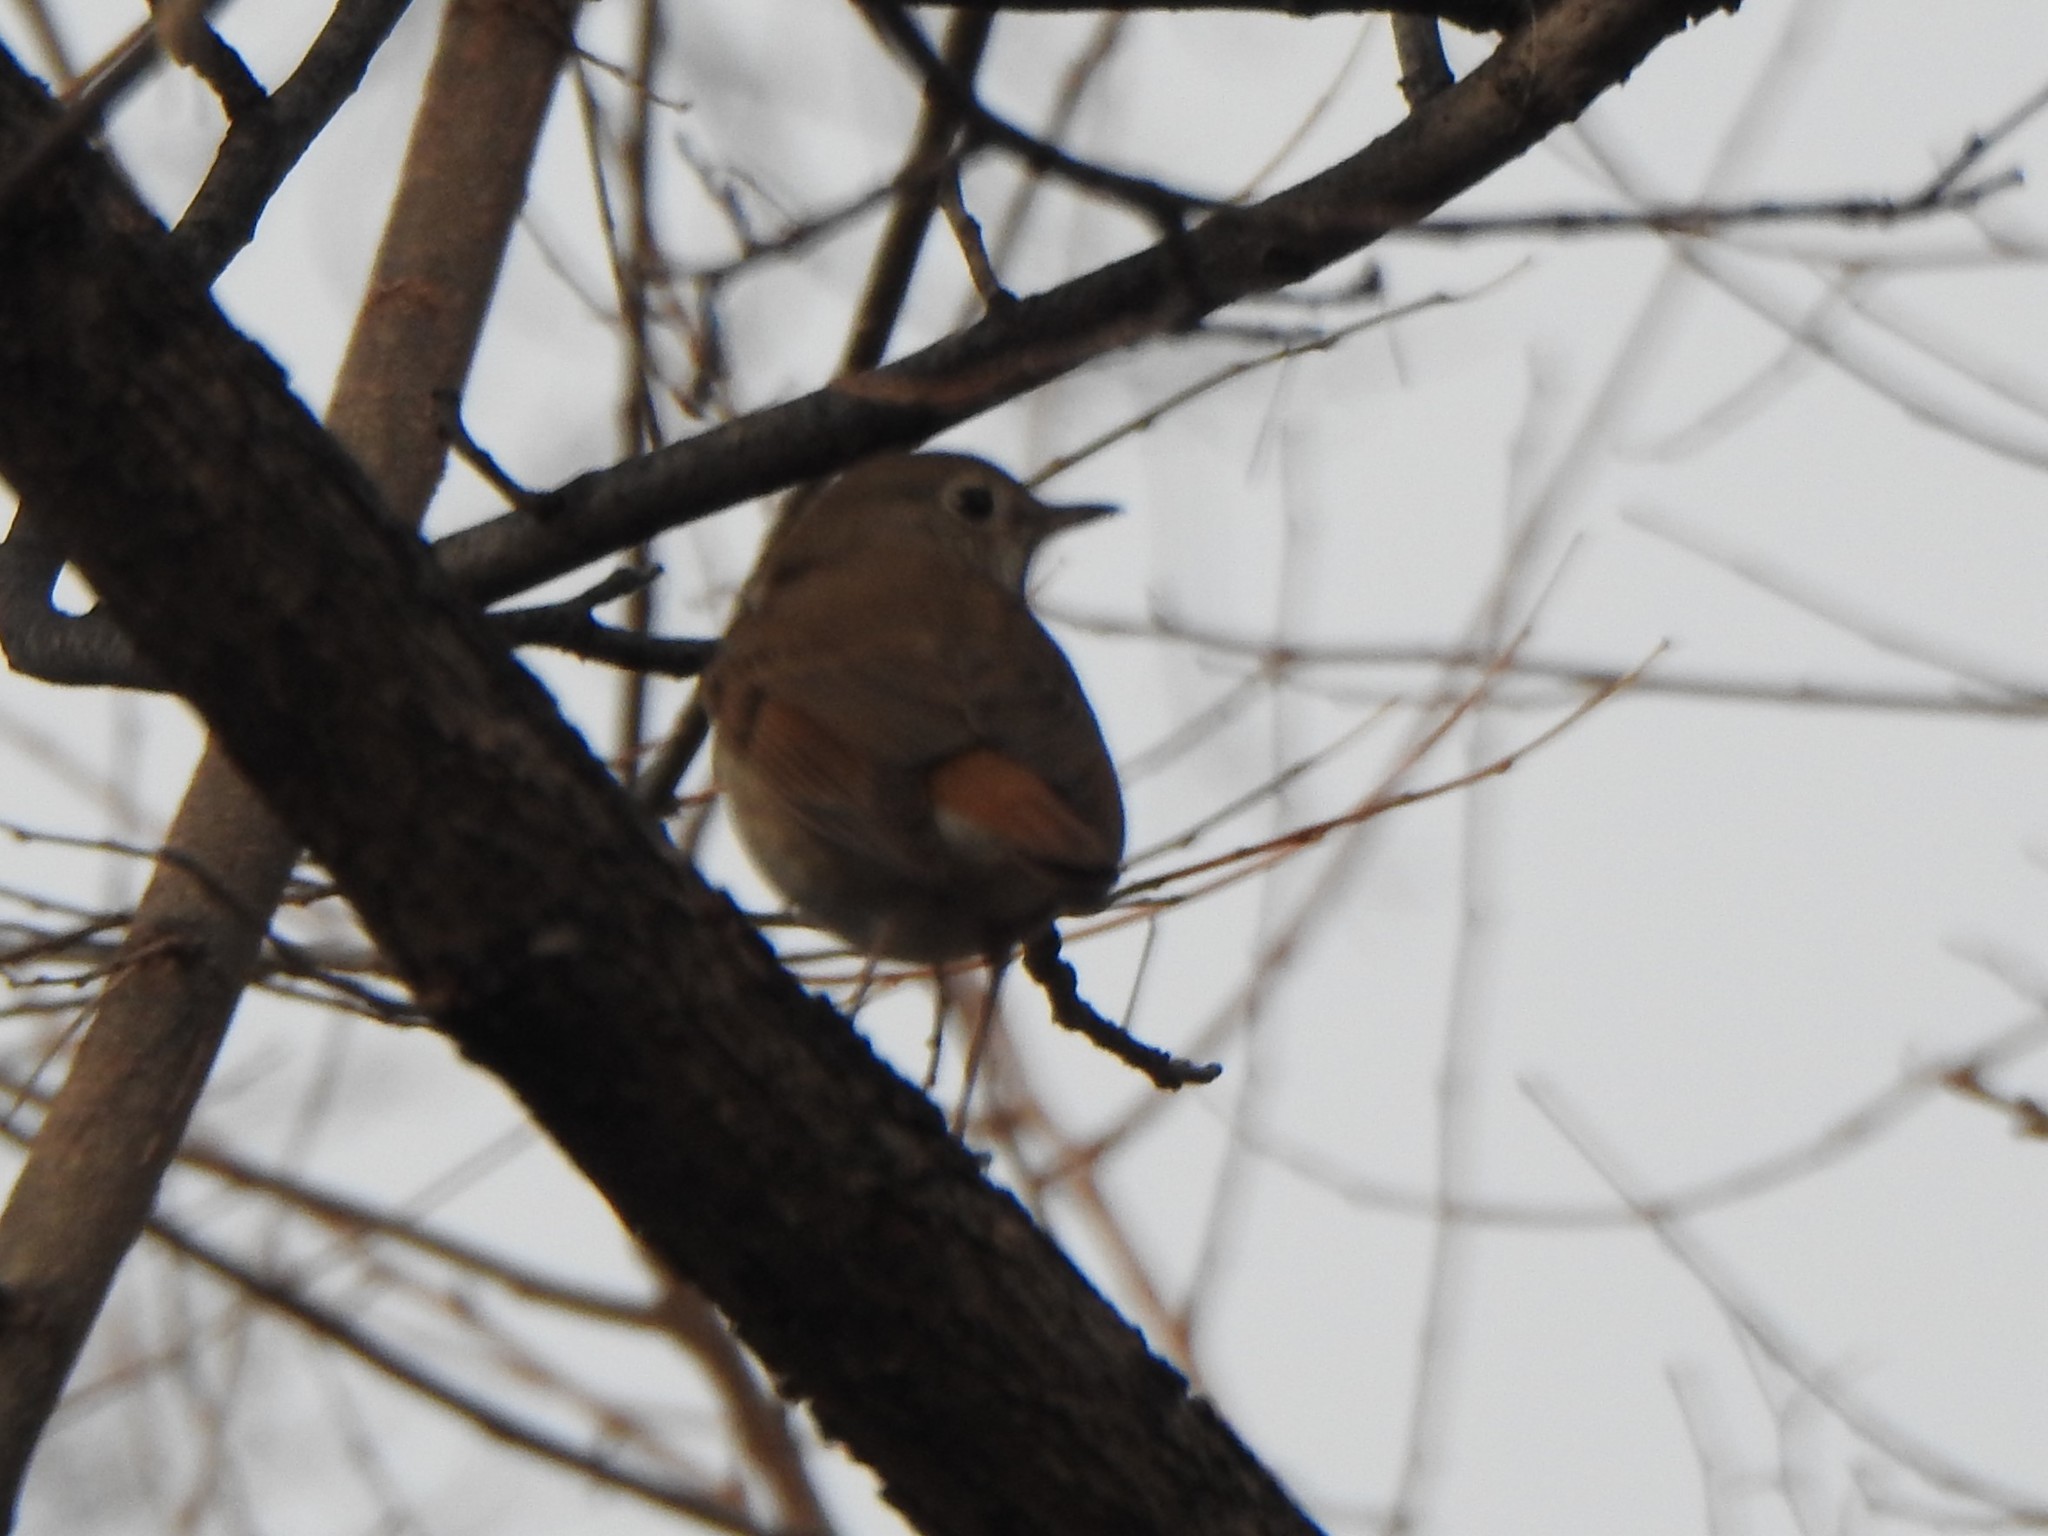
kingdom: Animalia
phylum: Chordata
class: Aves
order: Passeriformes
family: Turdidae
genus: Catharus
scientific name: Catharus guttatus
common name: Hermit thrush
